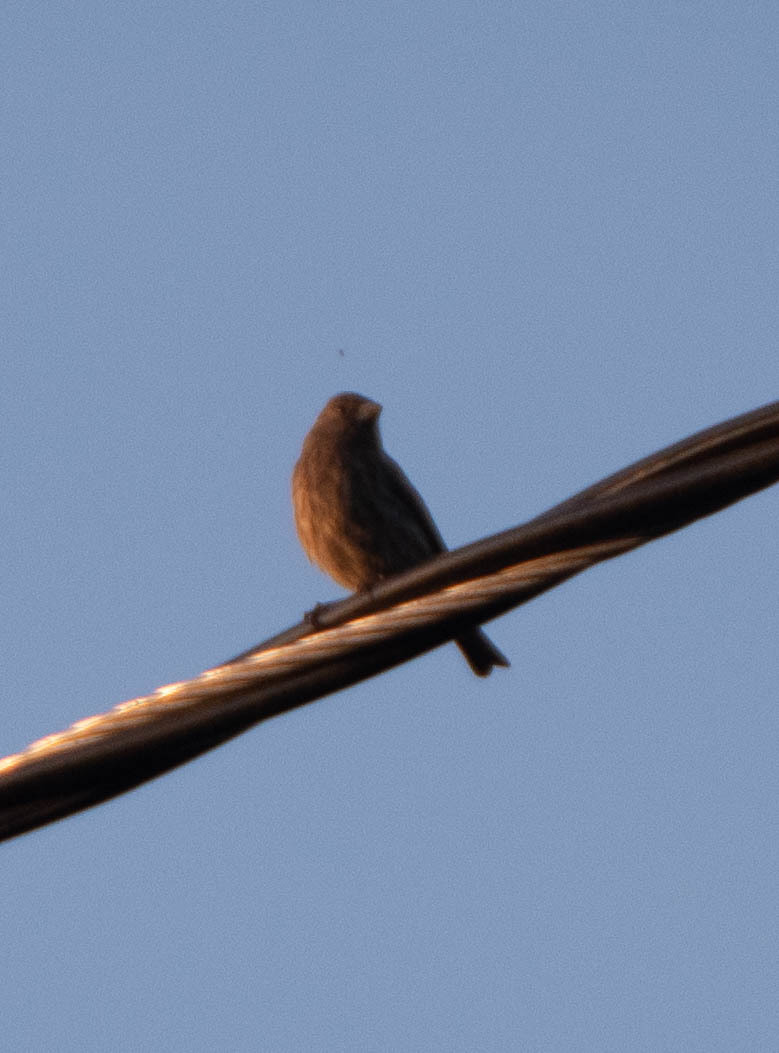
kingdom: Animalia
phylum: Chordata
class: Aves
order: Passeriformes
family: Fringillidae
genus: Haemorhous
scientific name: Haemorhous mexicanus
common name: House finch
